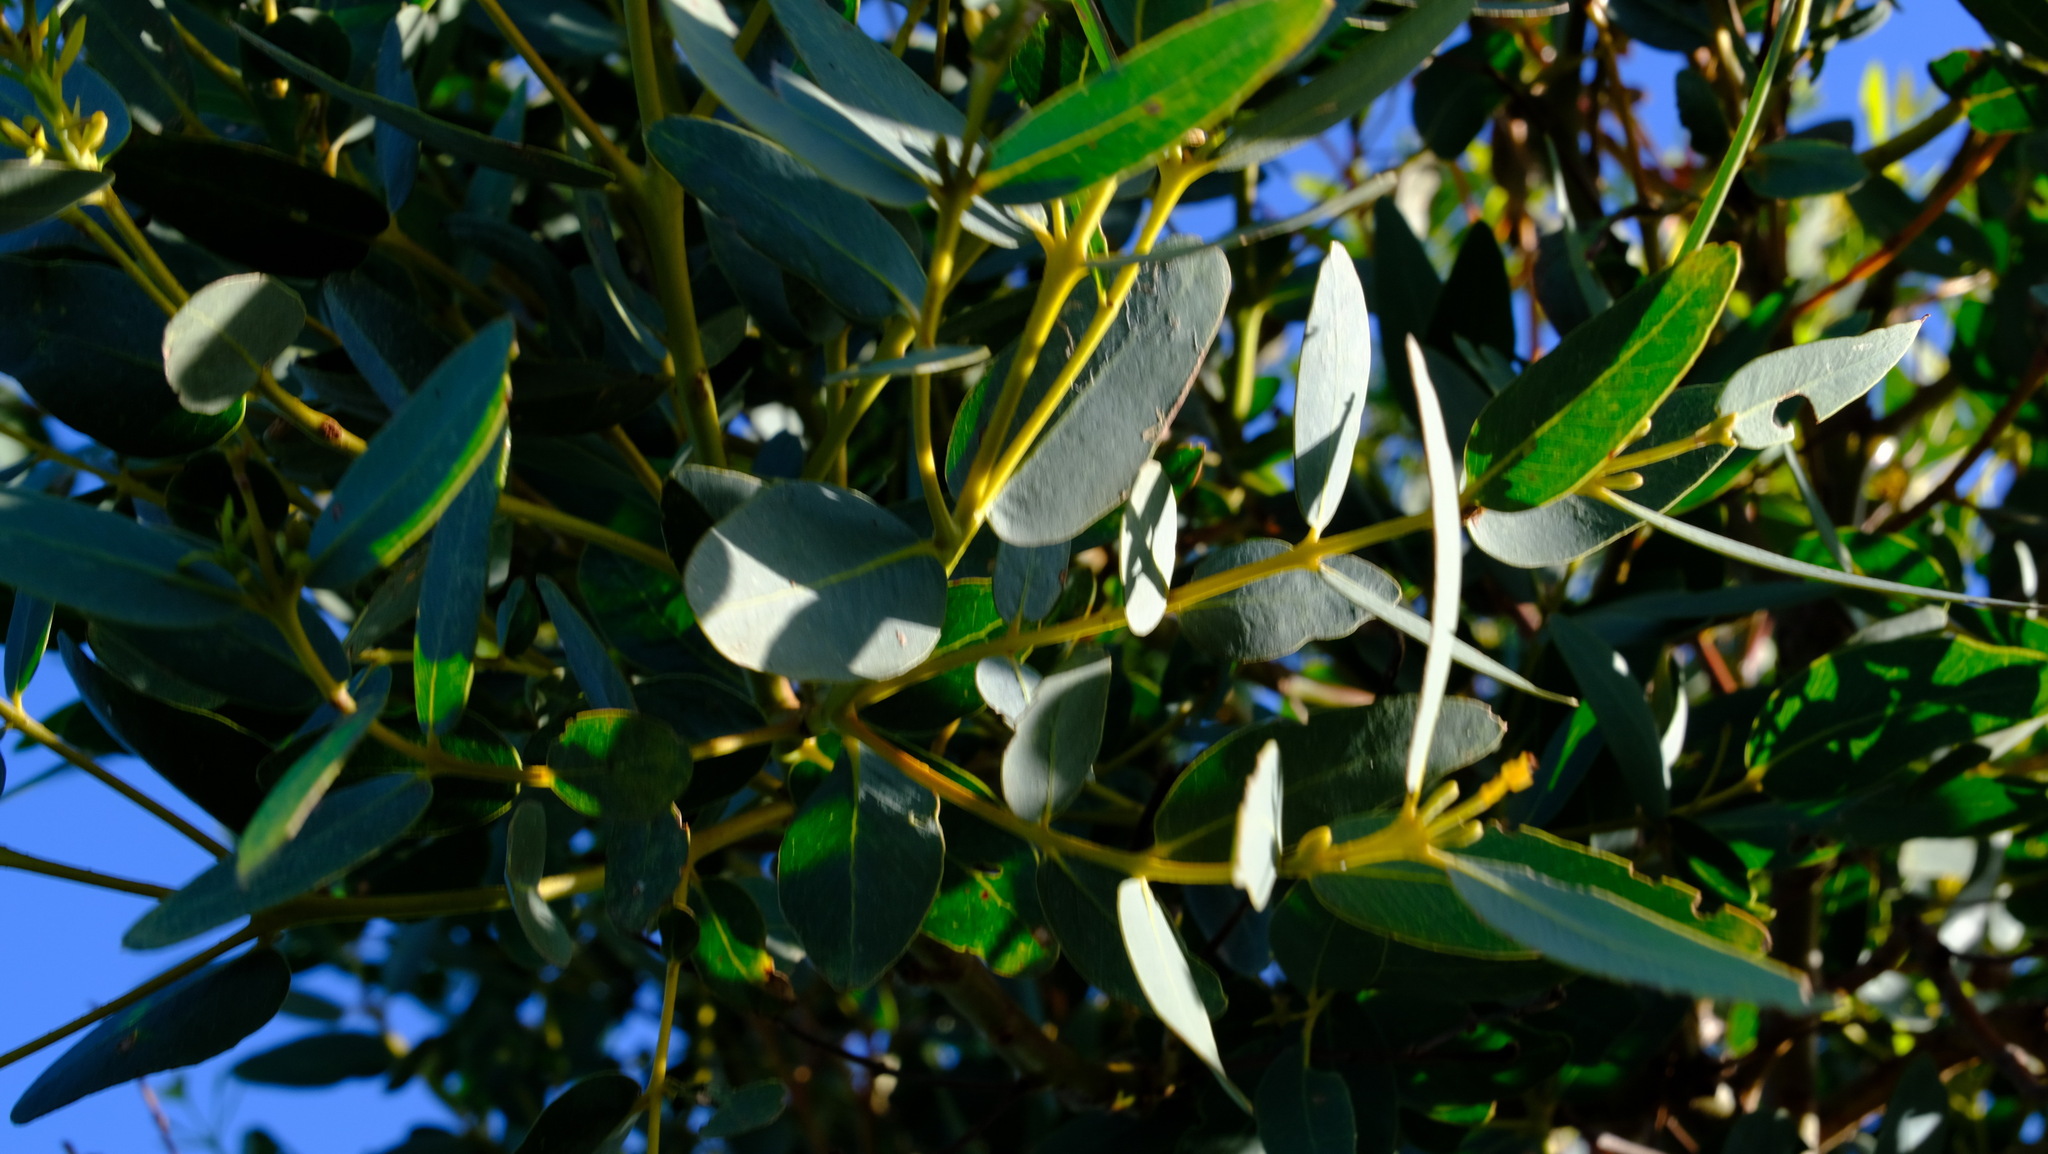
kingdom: Plantae
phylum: Tracheophyta
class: Magnoliopsida
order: Myrtales
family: Myrtaceae
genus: Eucalyptus
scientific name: Eucalyptus eudesmioides
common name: Desert gum
